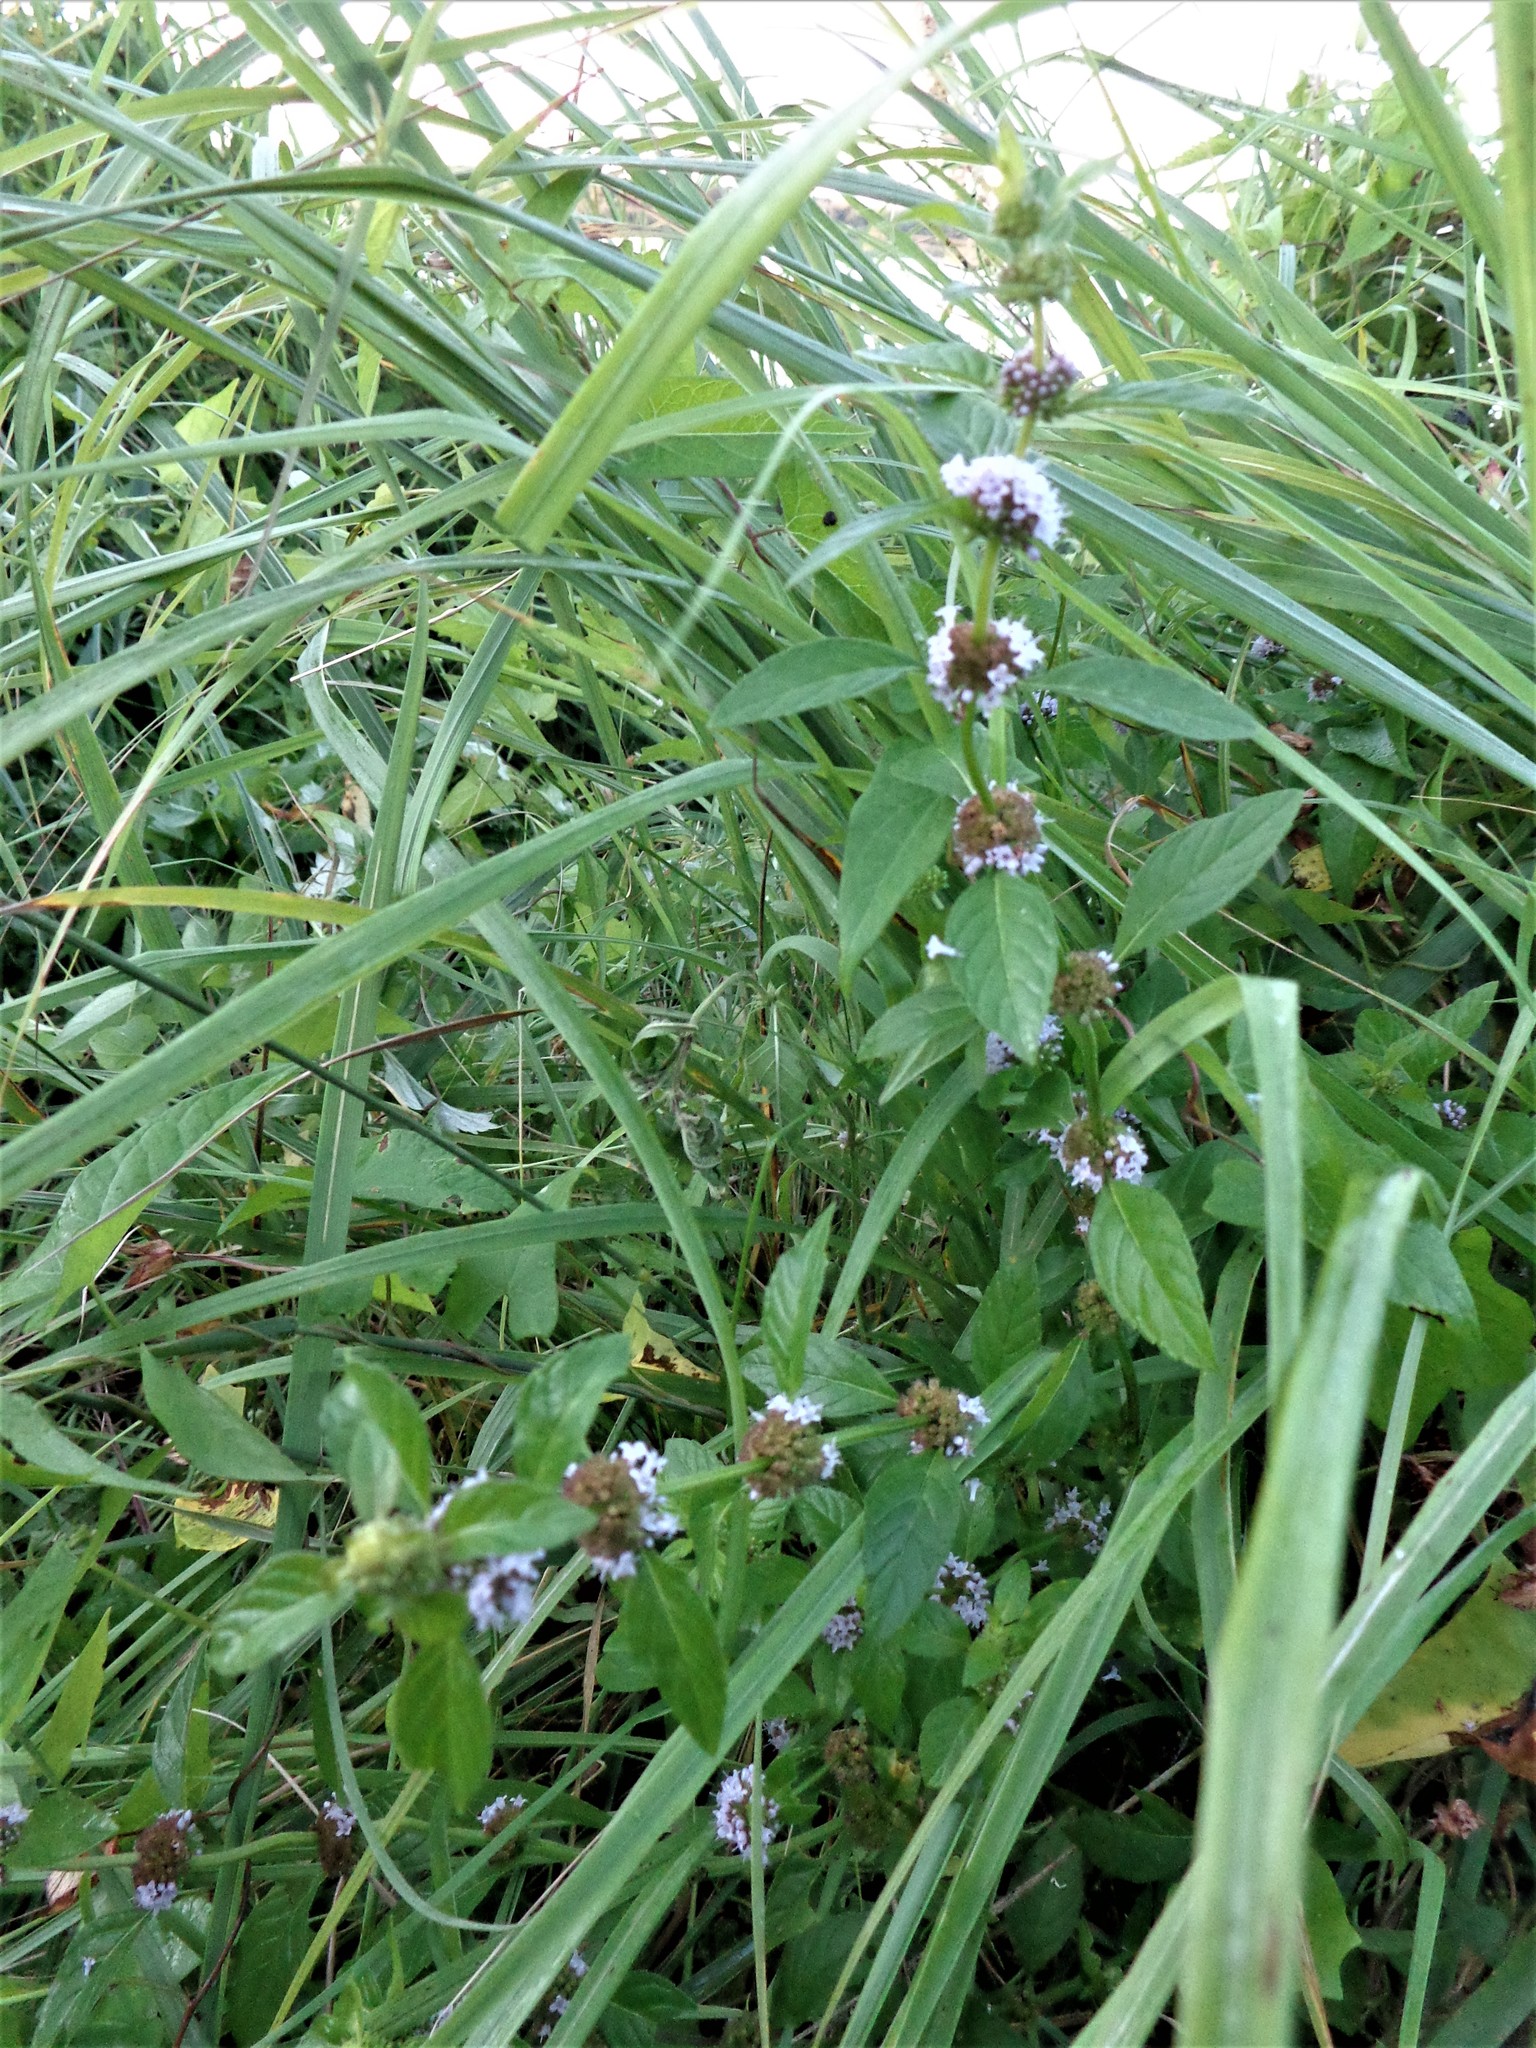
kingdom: Plantae
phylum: Tracheophyta
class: Magnoliopsida
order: Lamiales
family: Lamiaceae
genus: Mentha
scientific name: Mentha arvensis
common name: Corn mint
